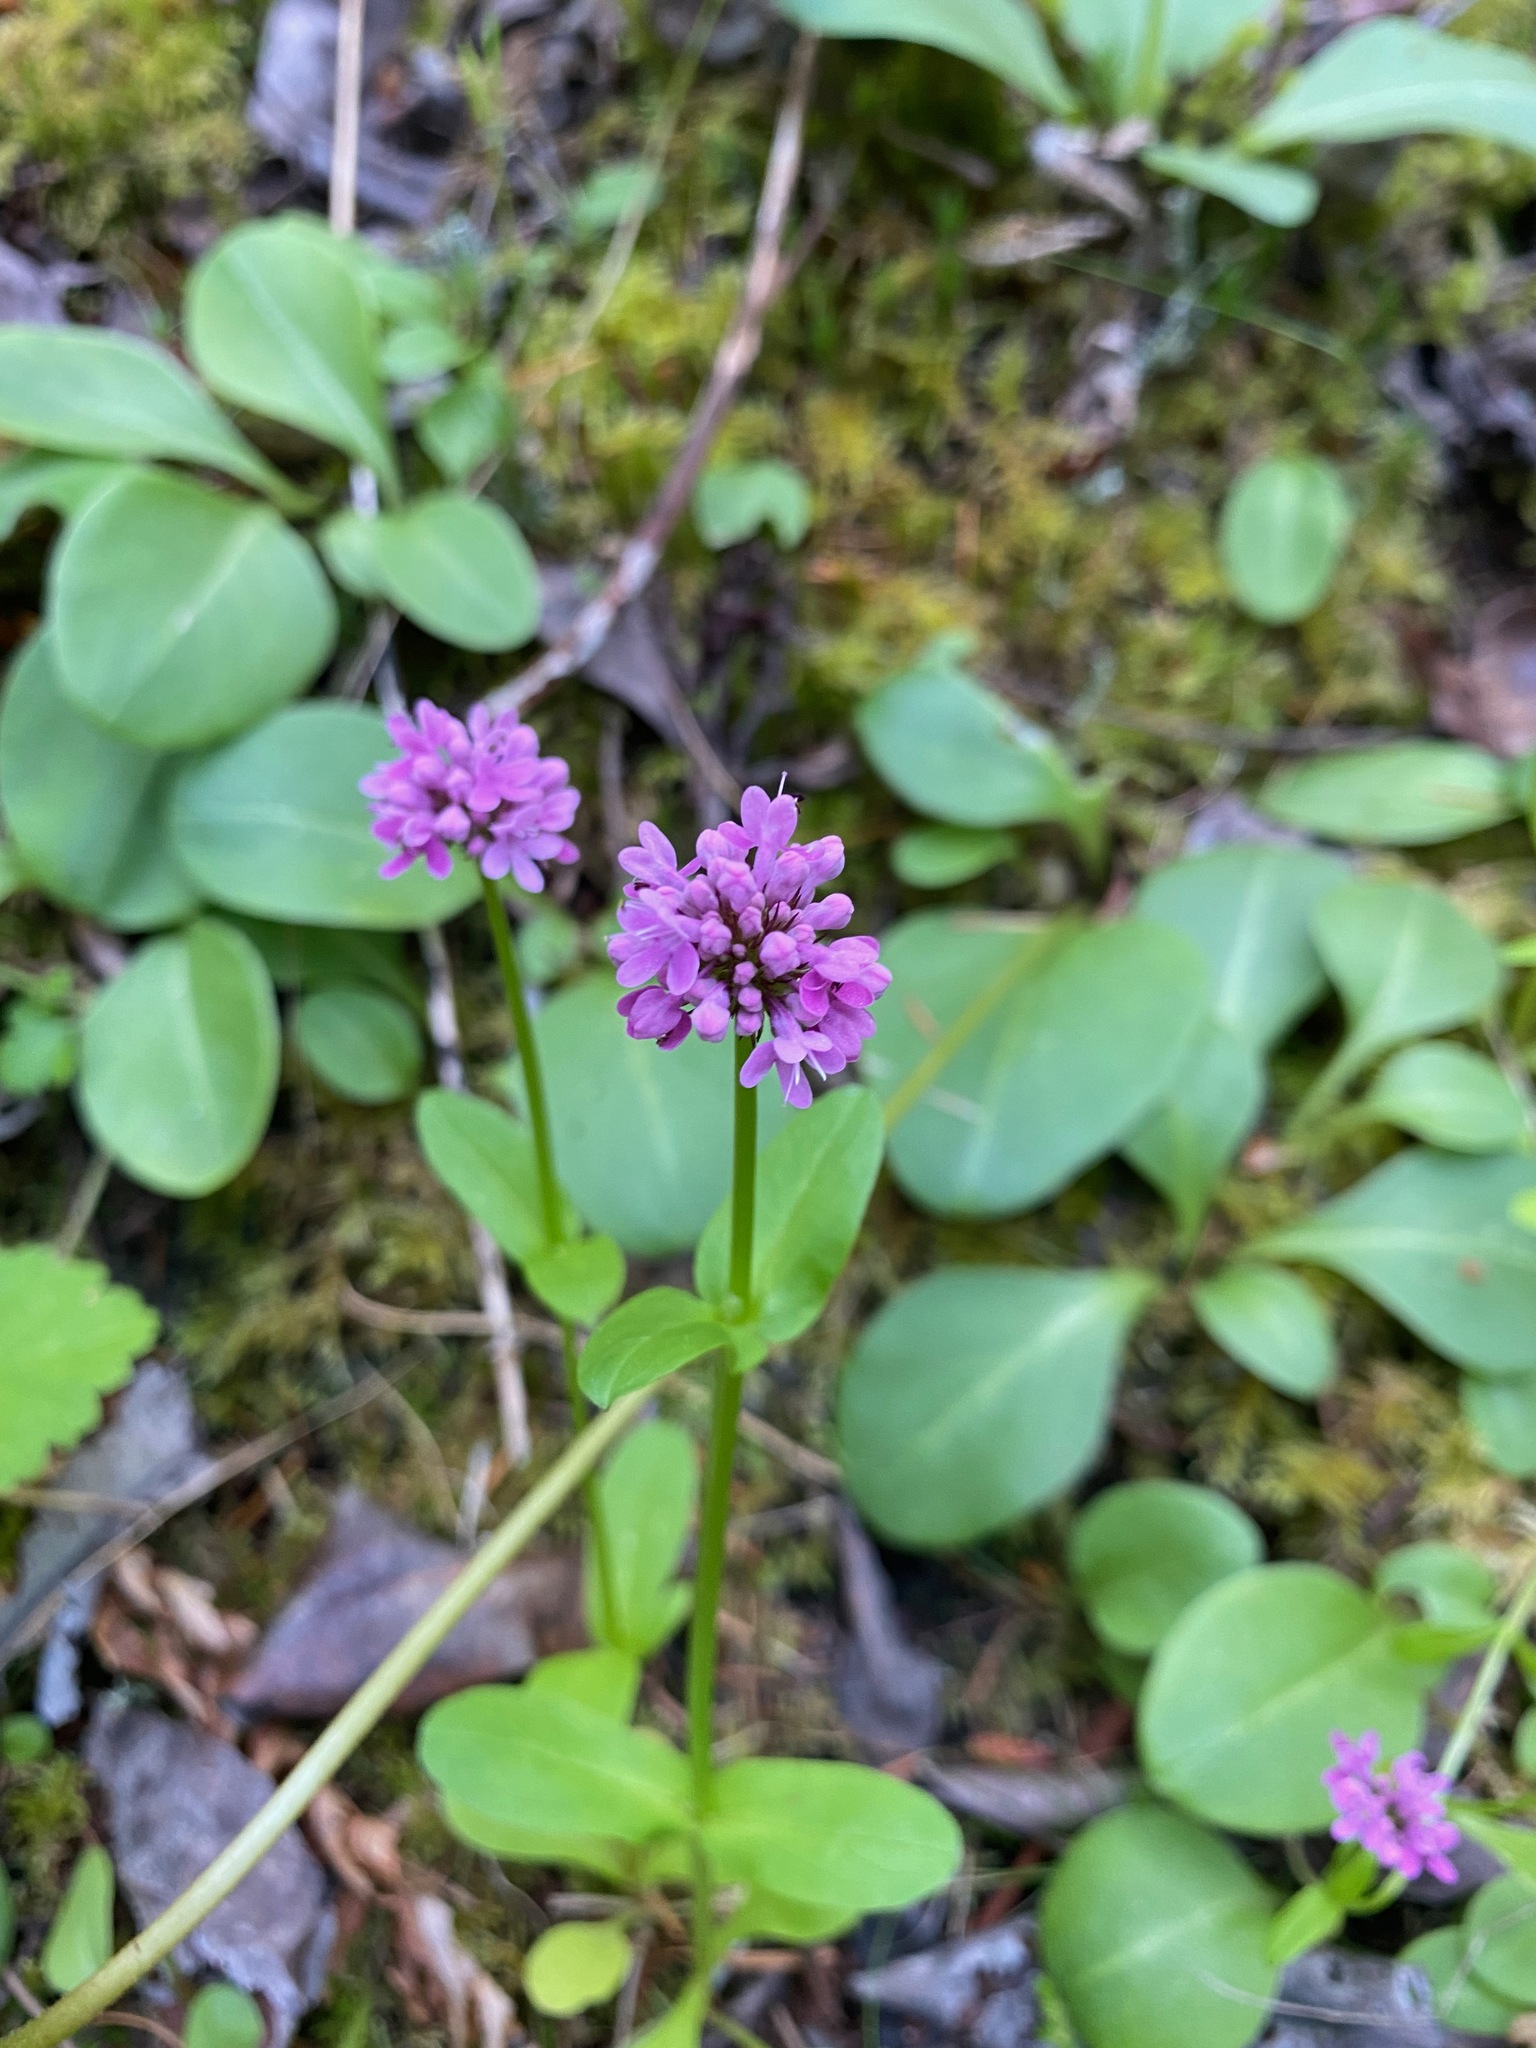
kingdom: Plantae
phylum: Tracheophyta
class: Magnoliopsida
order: Dipsacales
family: Caprifoliaceae
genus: Plectritis
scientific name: Plectritis congesta
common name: Pink plectritis
